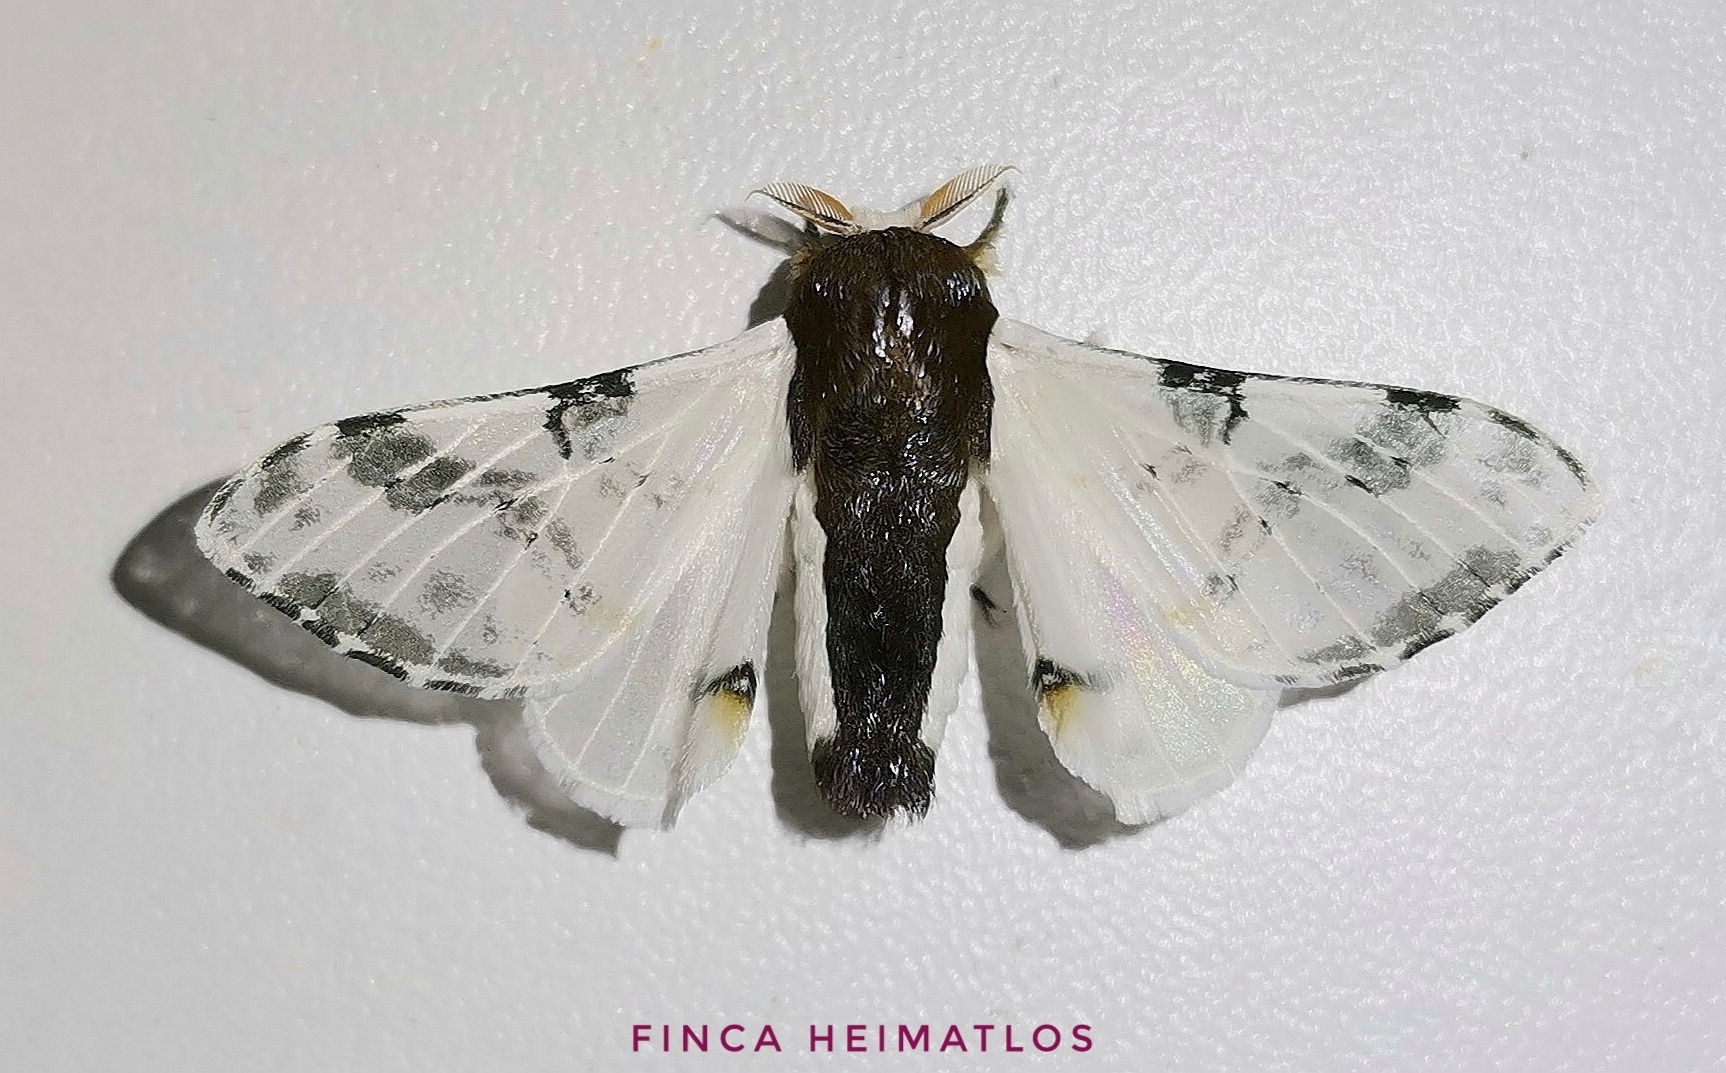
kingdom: Animalia
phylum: Arthropoda
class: Insecta
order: Lepidoptera
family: Bombycidae
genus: Colla
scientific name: Colla rhodope
